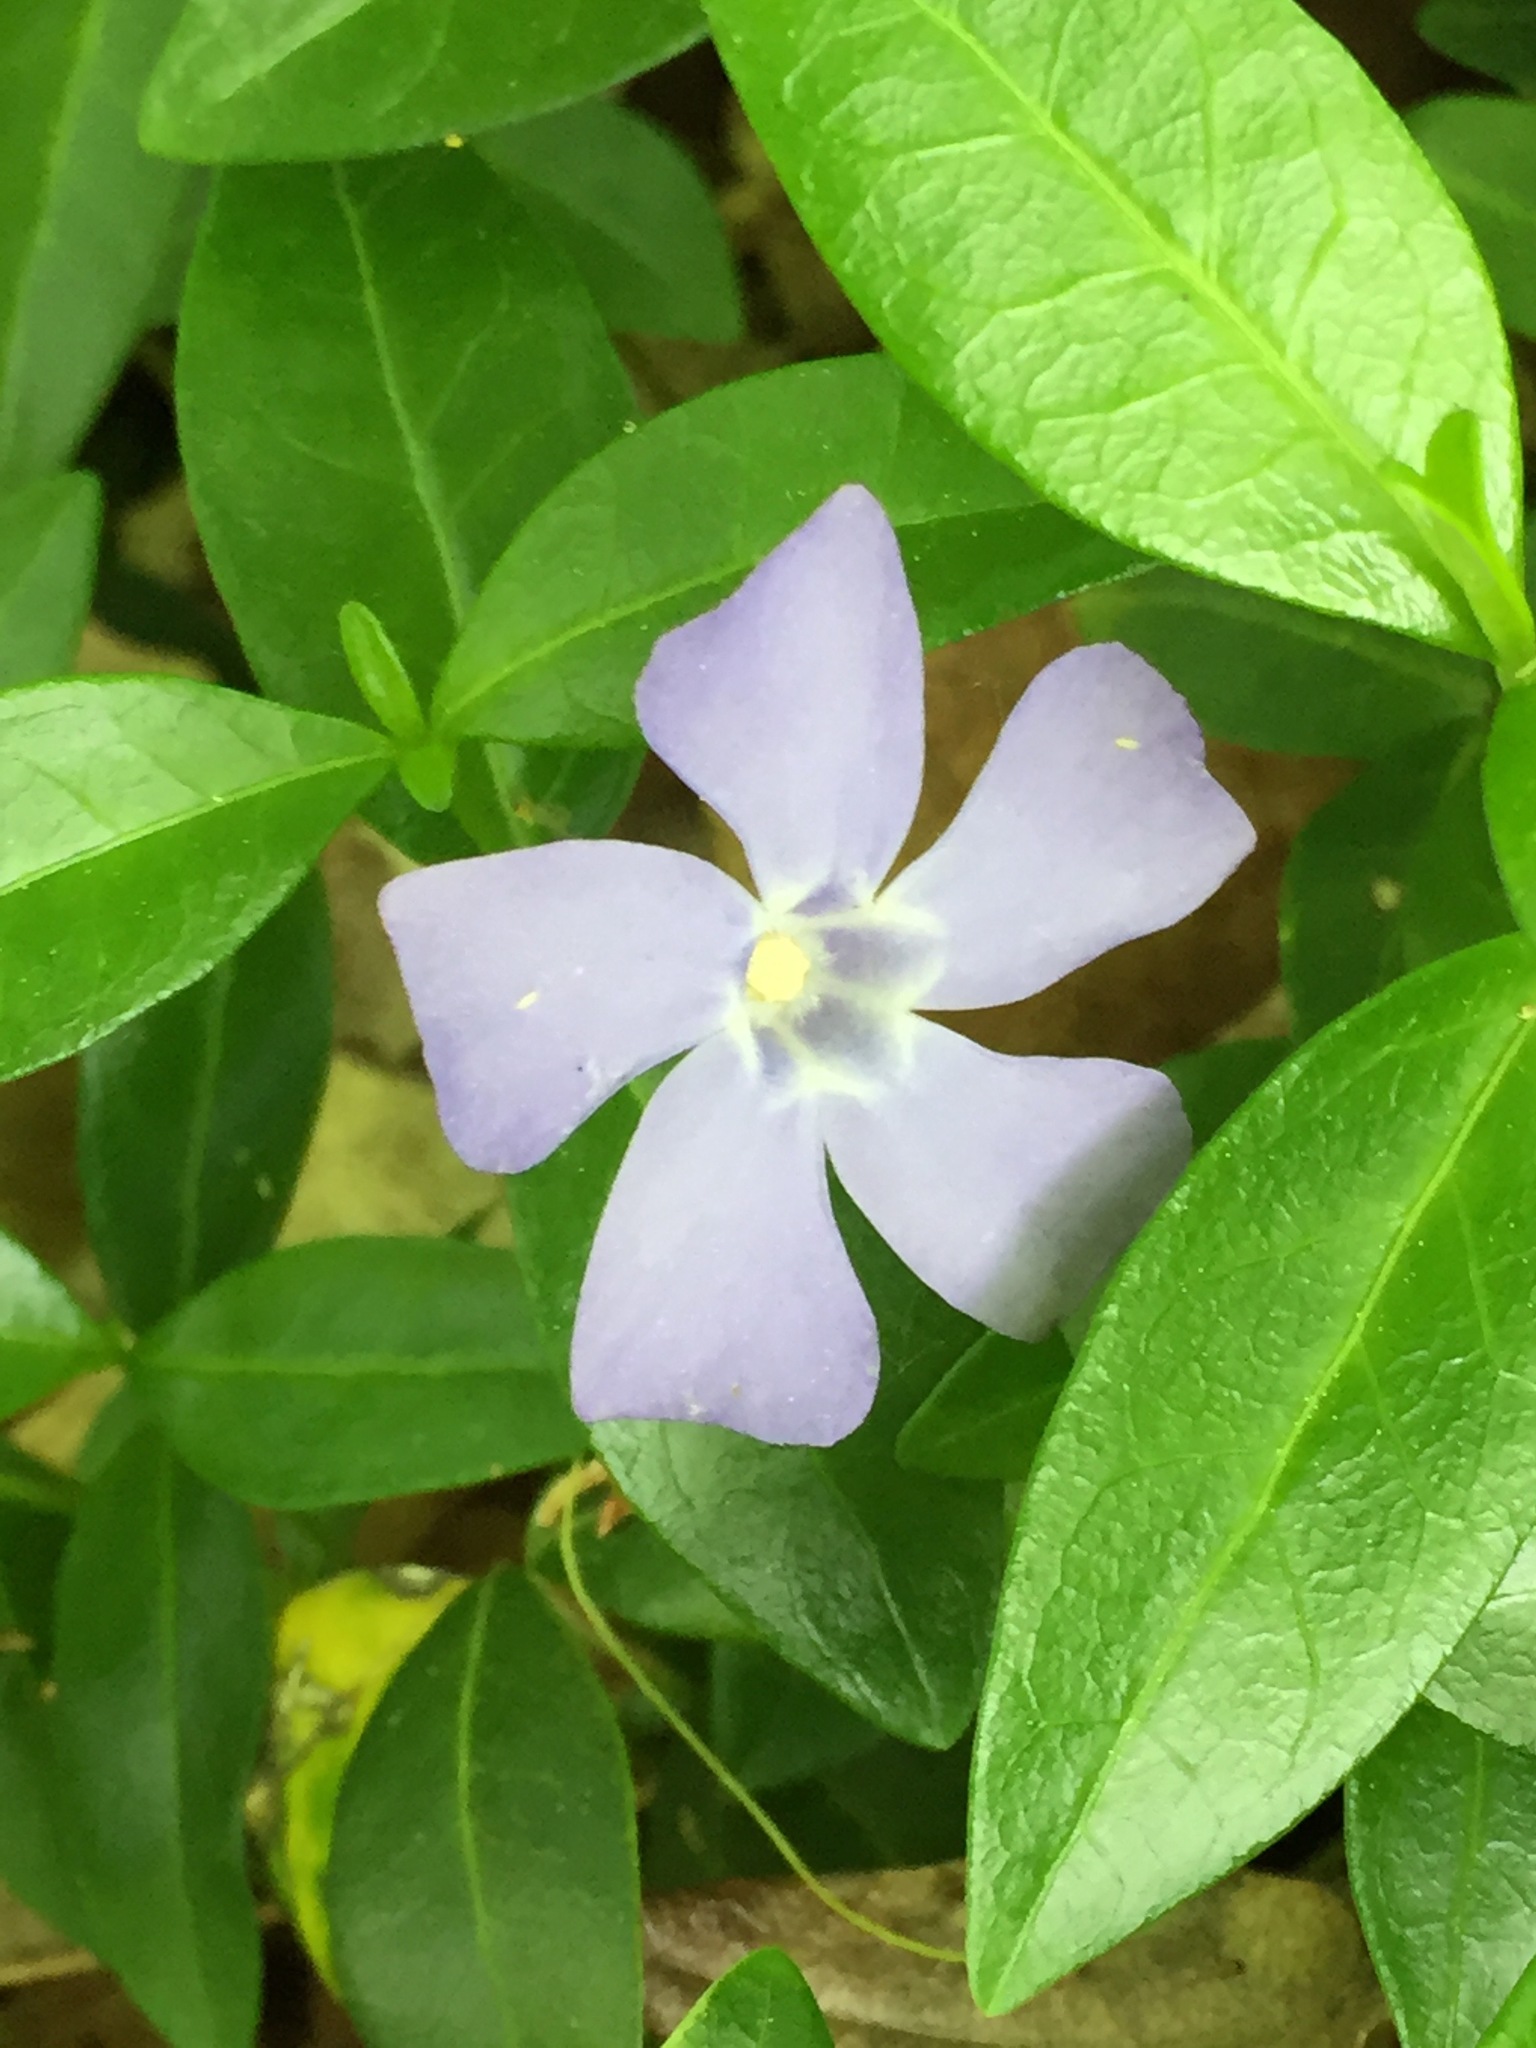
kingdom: Plantae
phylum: Tracheophyta
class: Magnoliopsida
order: Gentianales
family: Apocynaceae
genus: Vinca
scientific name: Vinca minor
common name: Lesser periwinkle
